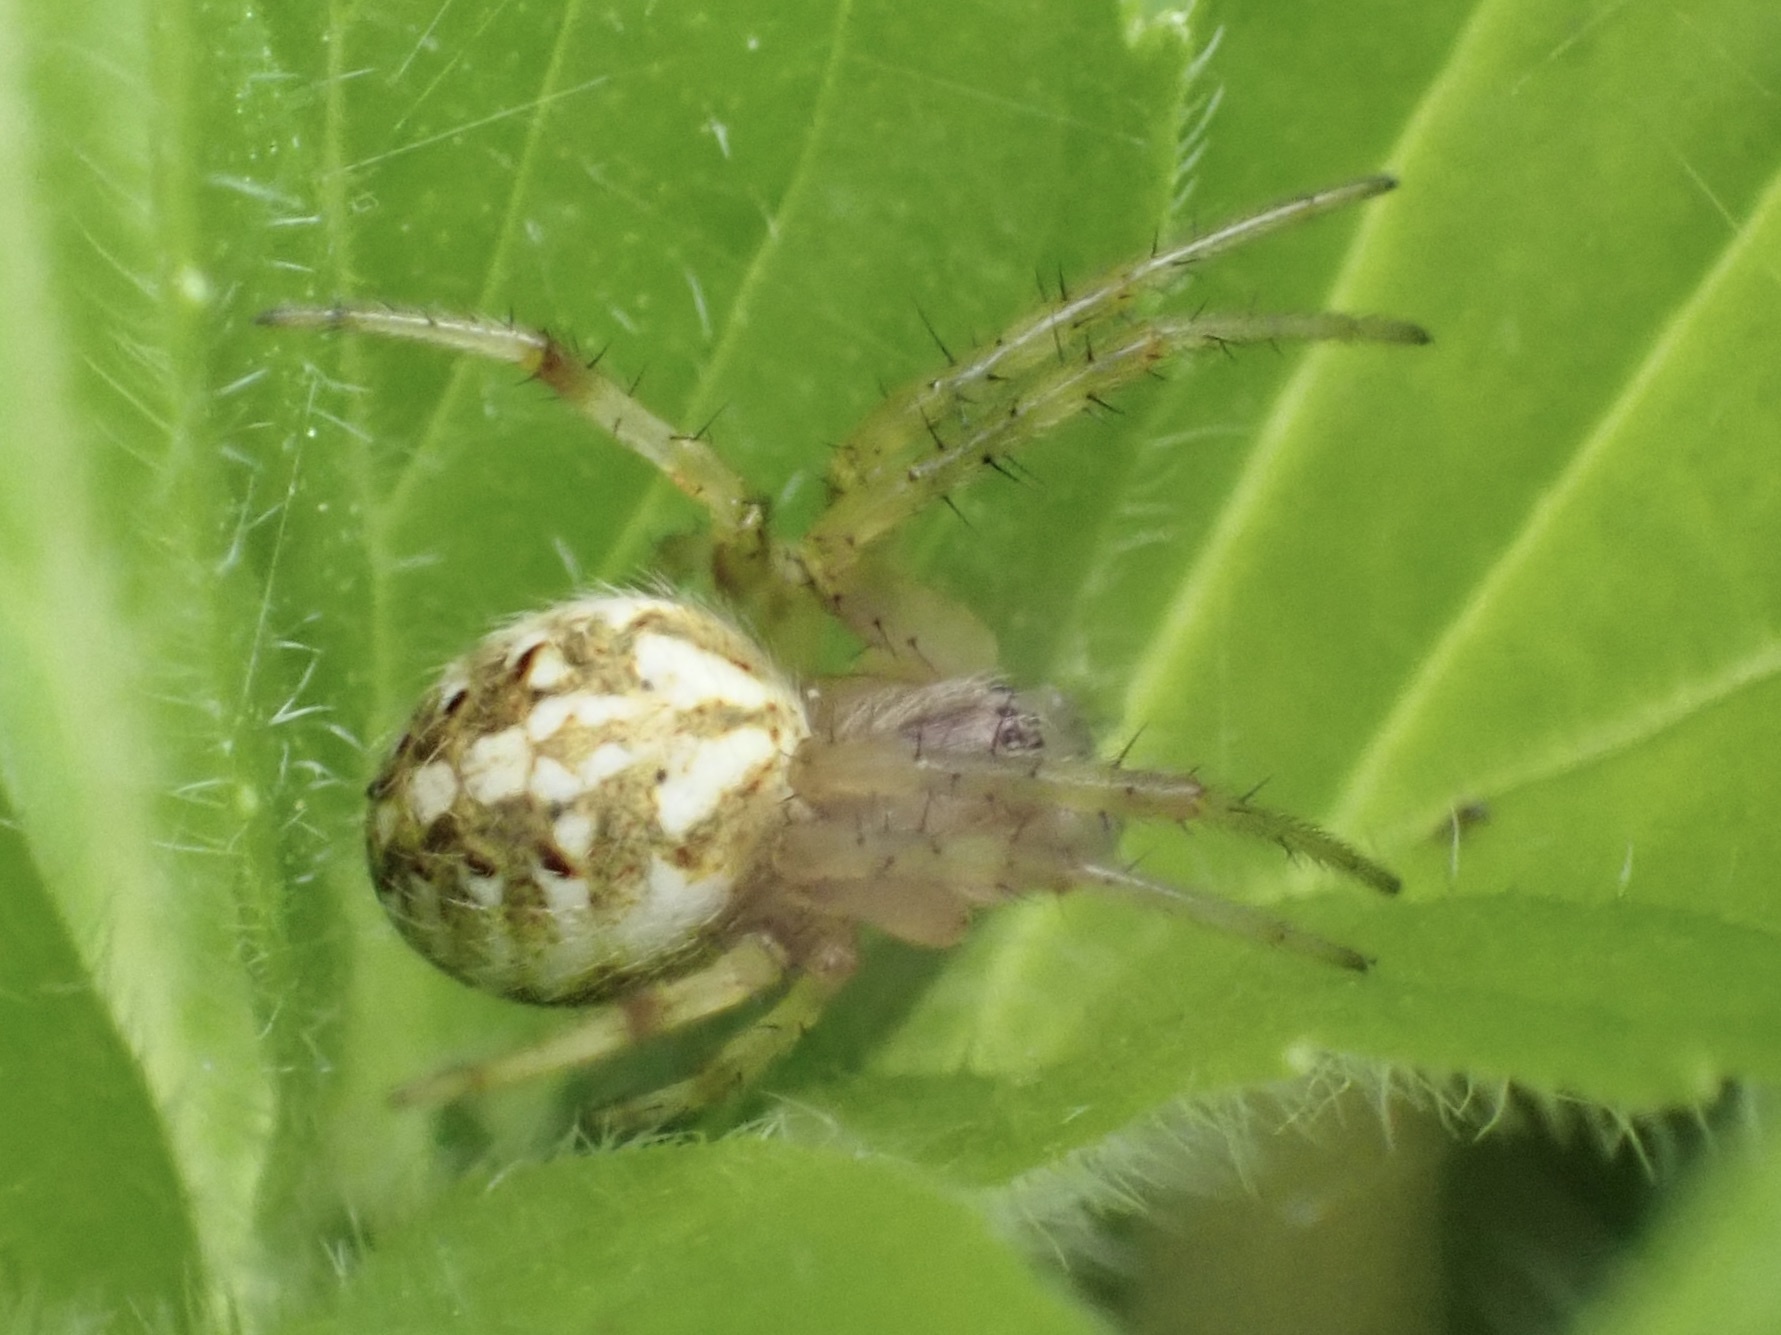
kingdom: Animalia
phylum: Arthropoda
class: Arachnida
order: Araneae
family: Araneidae
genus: Neoscona
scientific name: Neoscona arabesca
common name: Orb weavers
